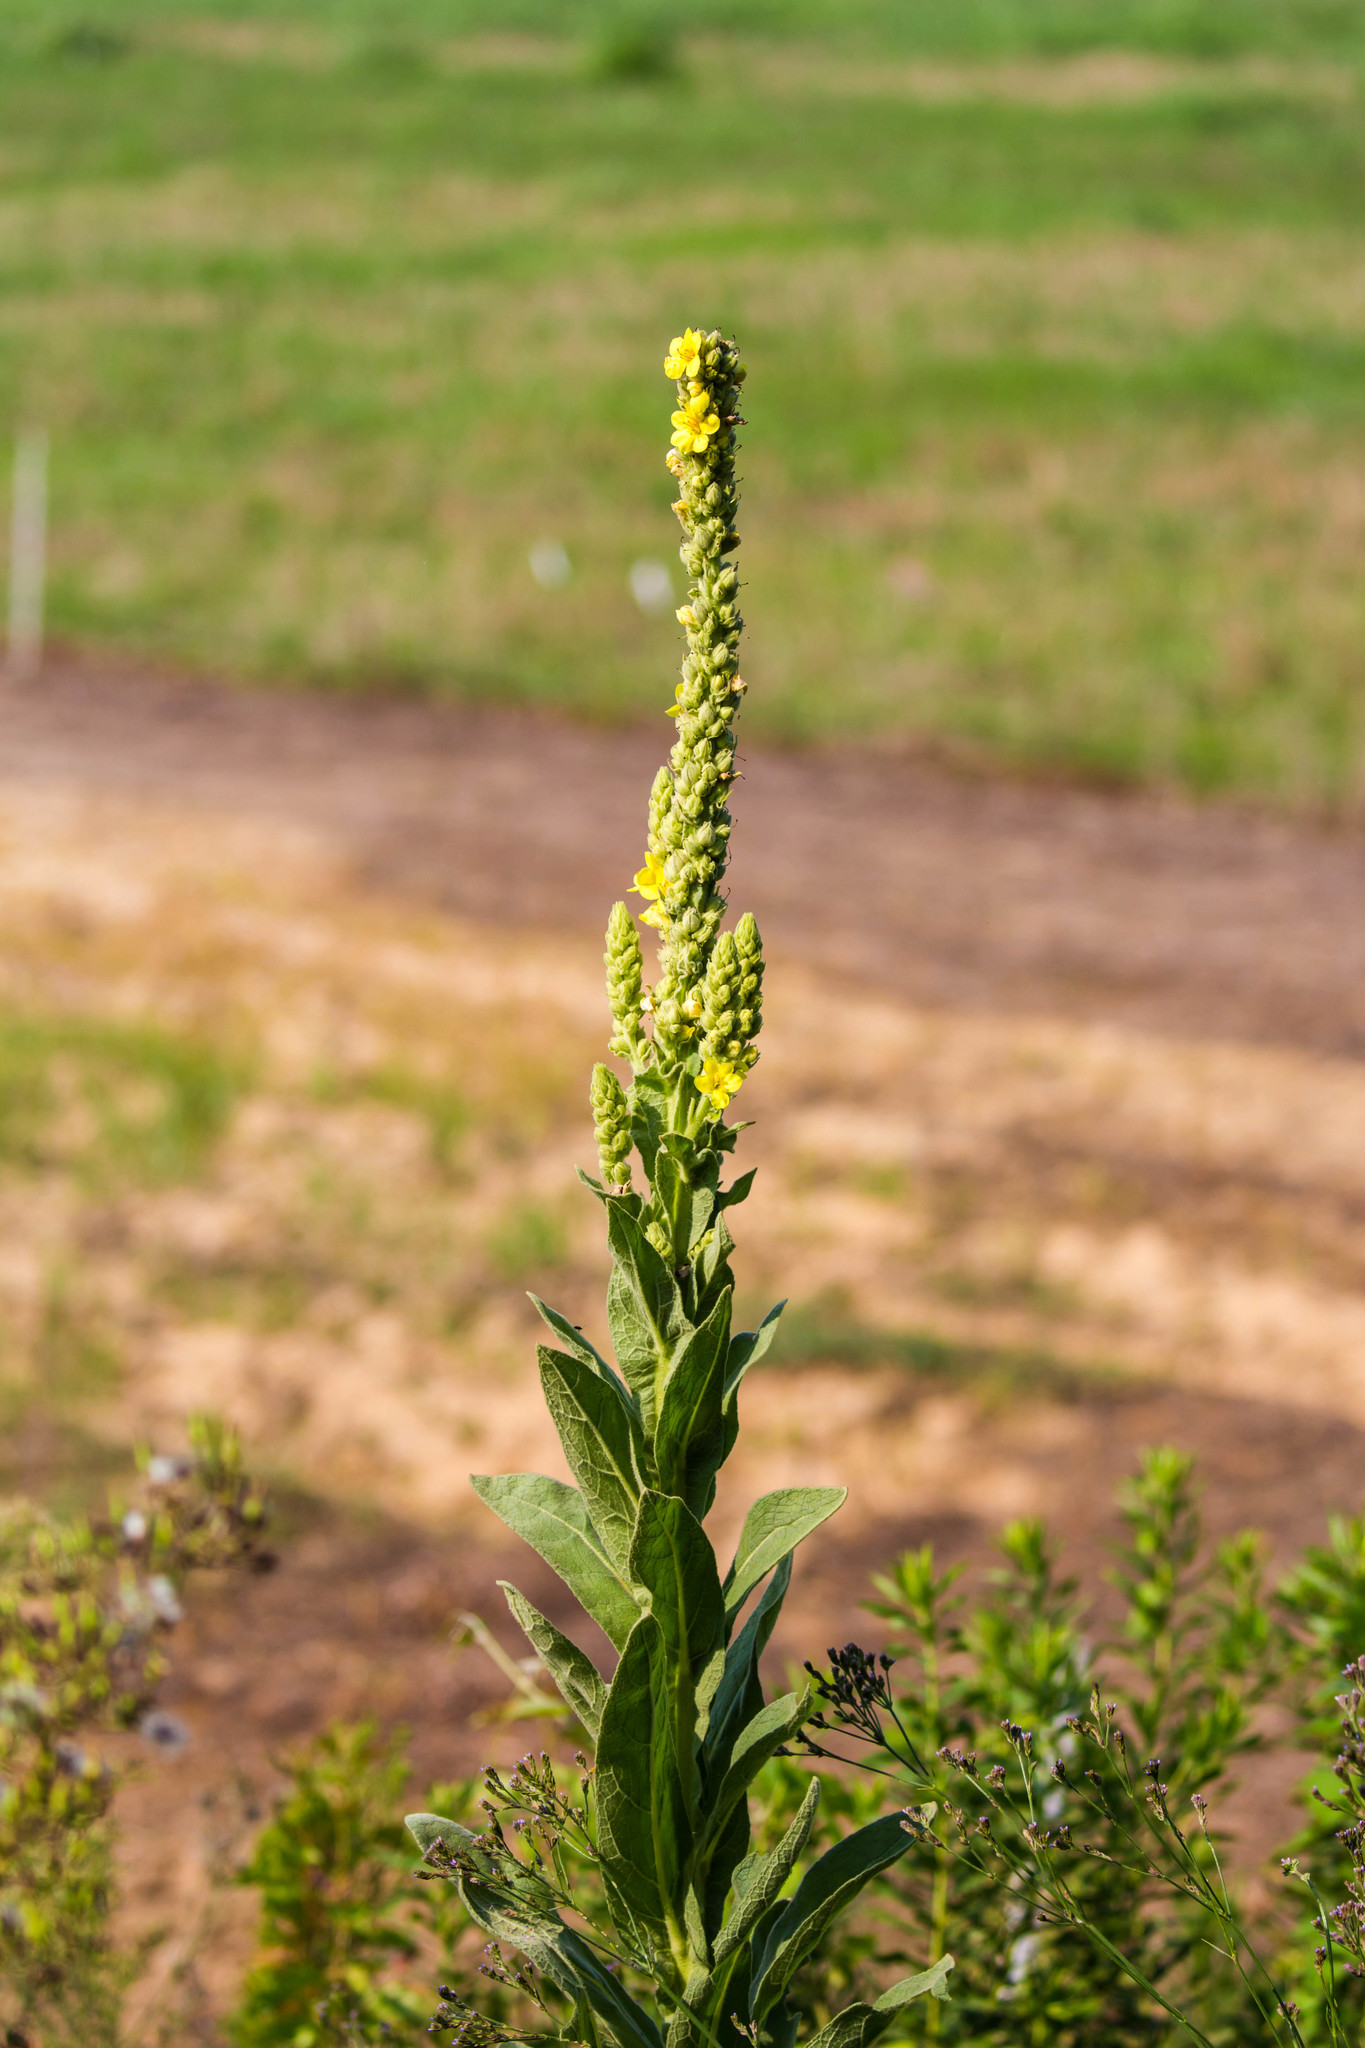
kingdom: Plantae
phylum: Tracheophyta
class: Magnoliopsida
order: Lamiales
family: Scrophulariaceae
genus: Verbascum
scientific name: Verbascum thapsus
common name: Common mullein
